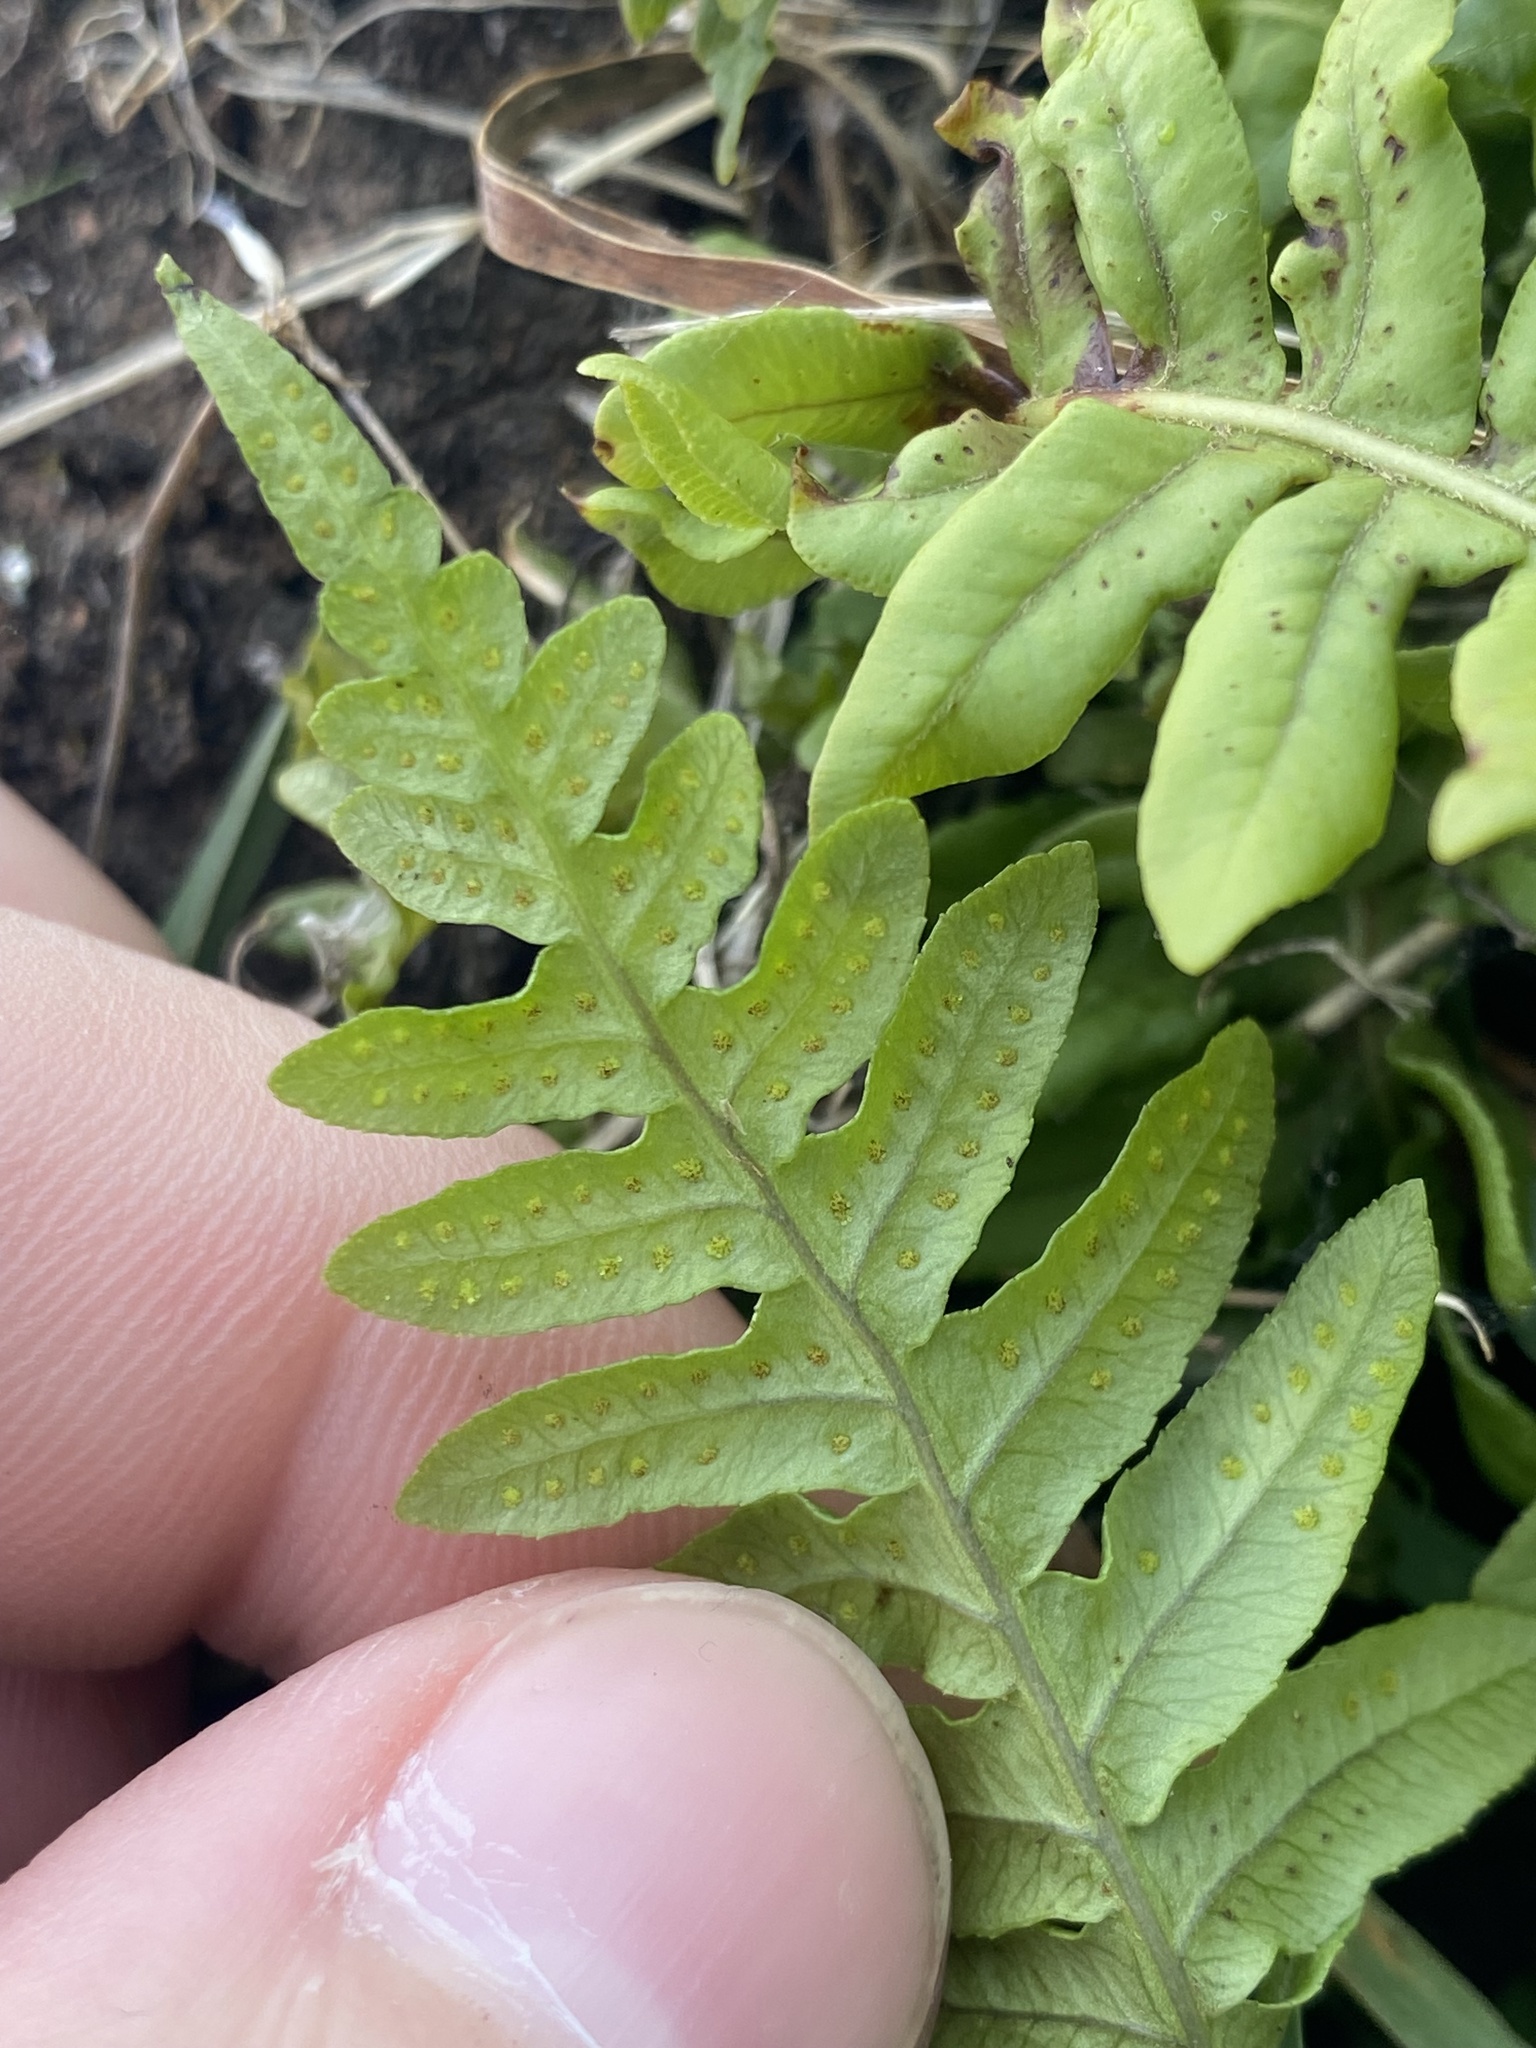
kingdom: Plantae
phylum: Tracheophyta
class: Polypodiopsida
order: Polypodiales
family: Polypodiaceae
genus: Polypodium
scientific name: Polypodium glycyrrhiza
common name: Licorice fern
